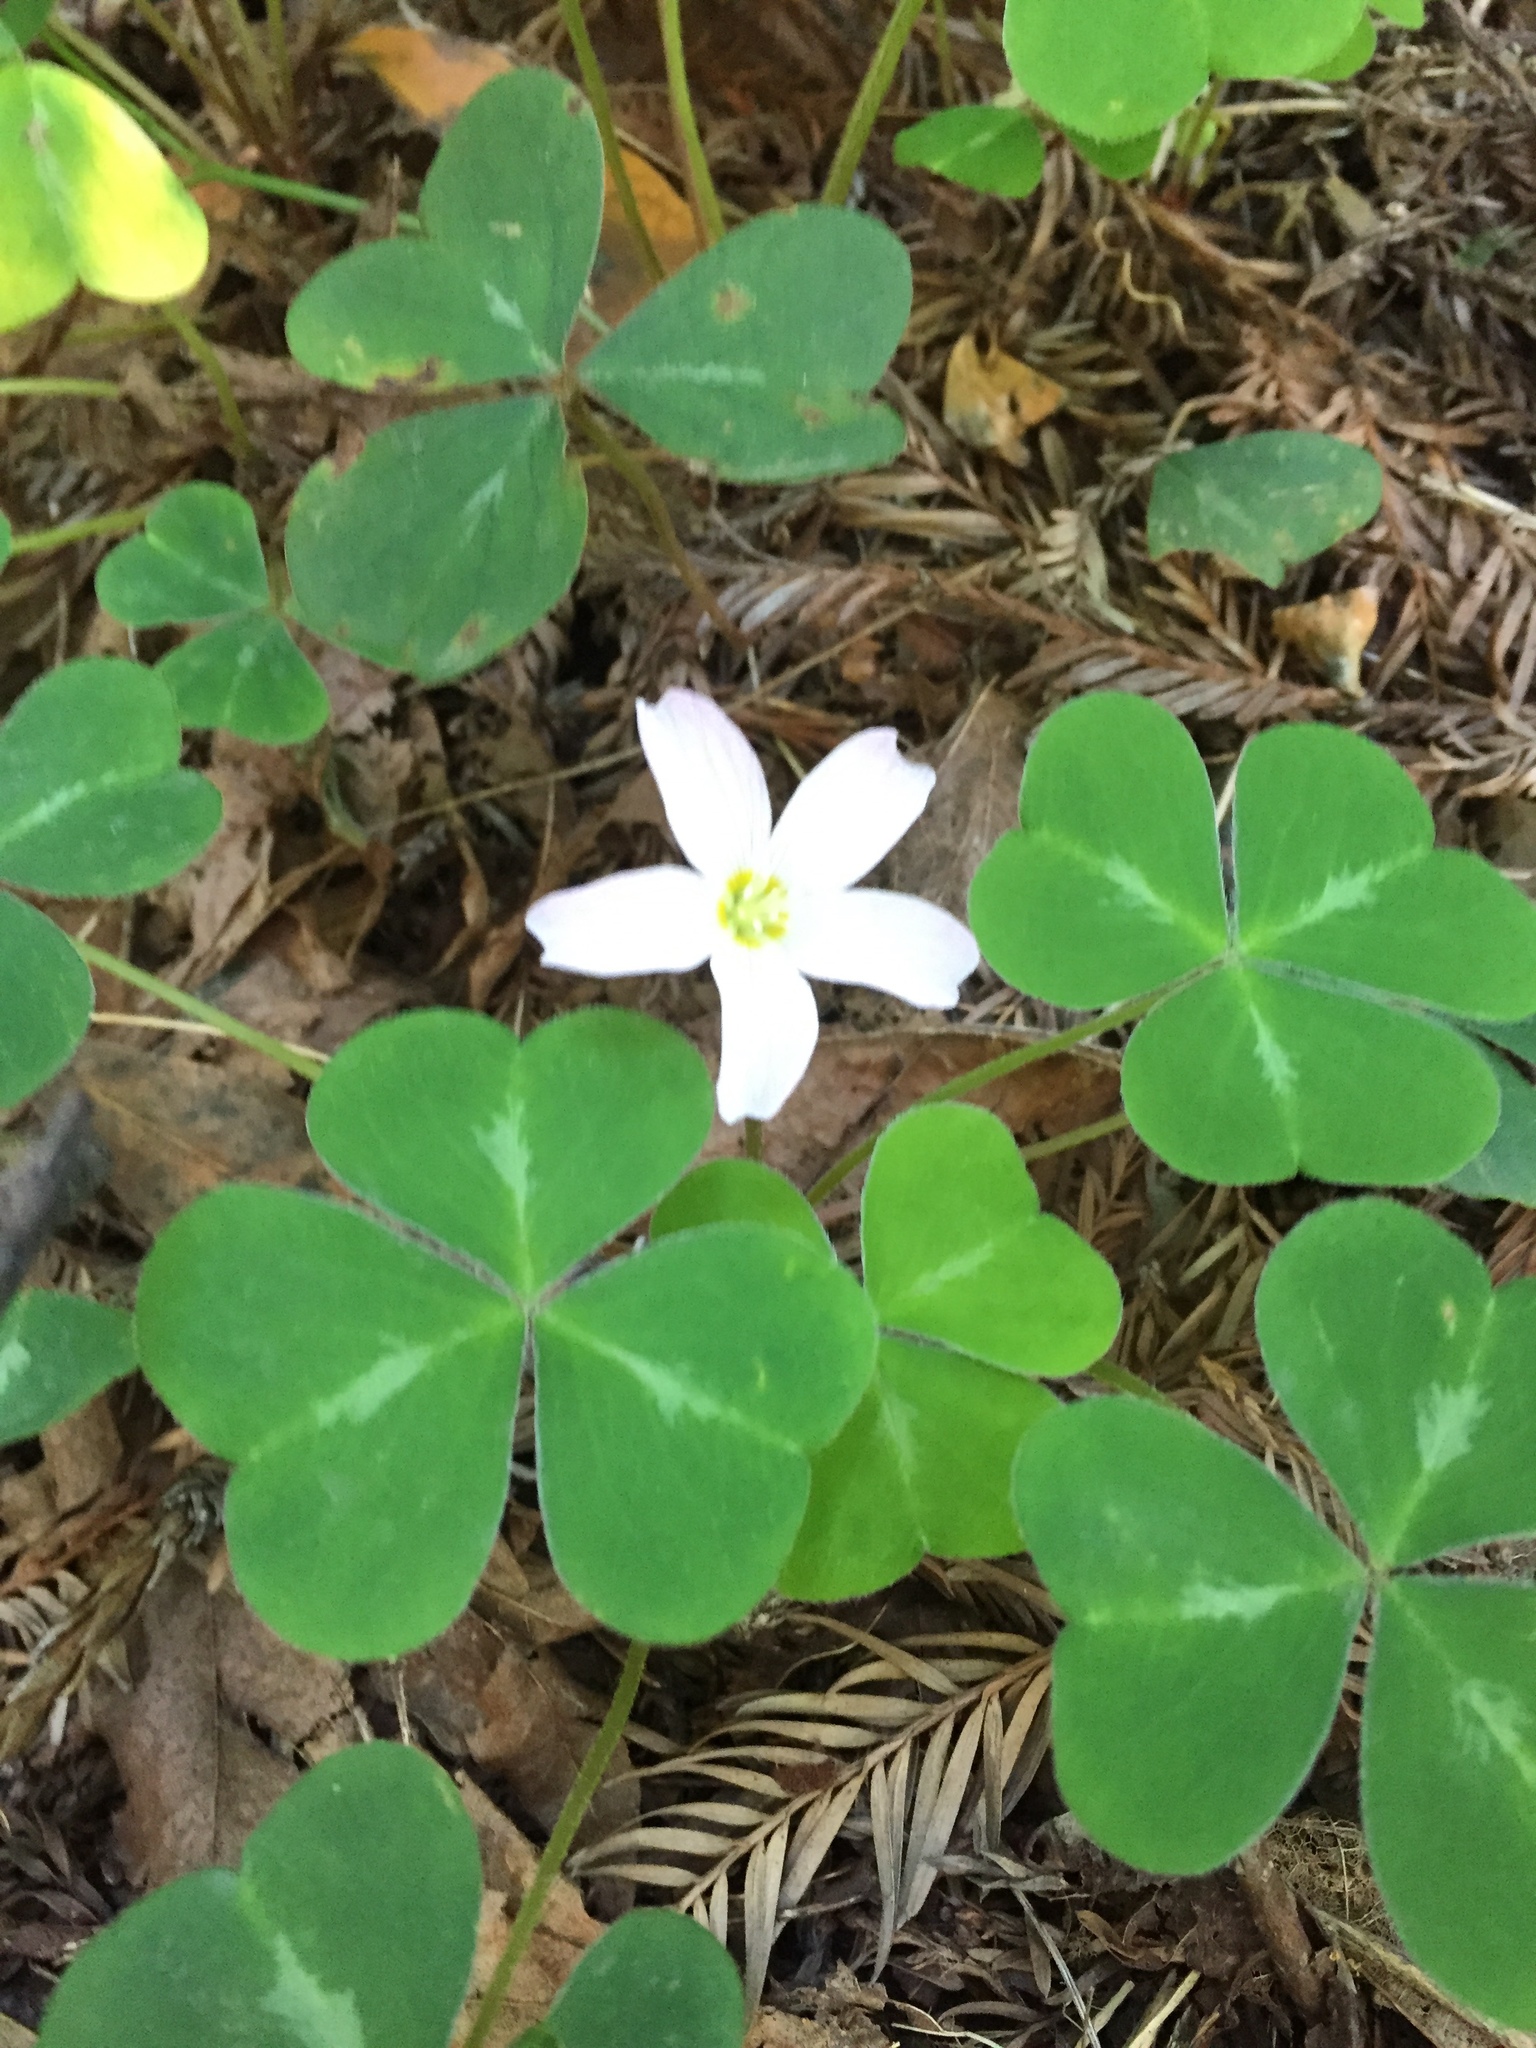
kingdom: Plantae
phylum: Tracheophyta
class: Magnoliopsida
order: Oxalidales
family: Oxalidaceae
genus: Oxalis
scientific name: Oxalis oregana
